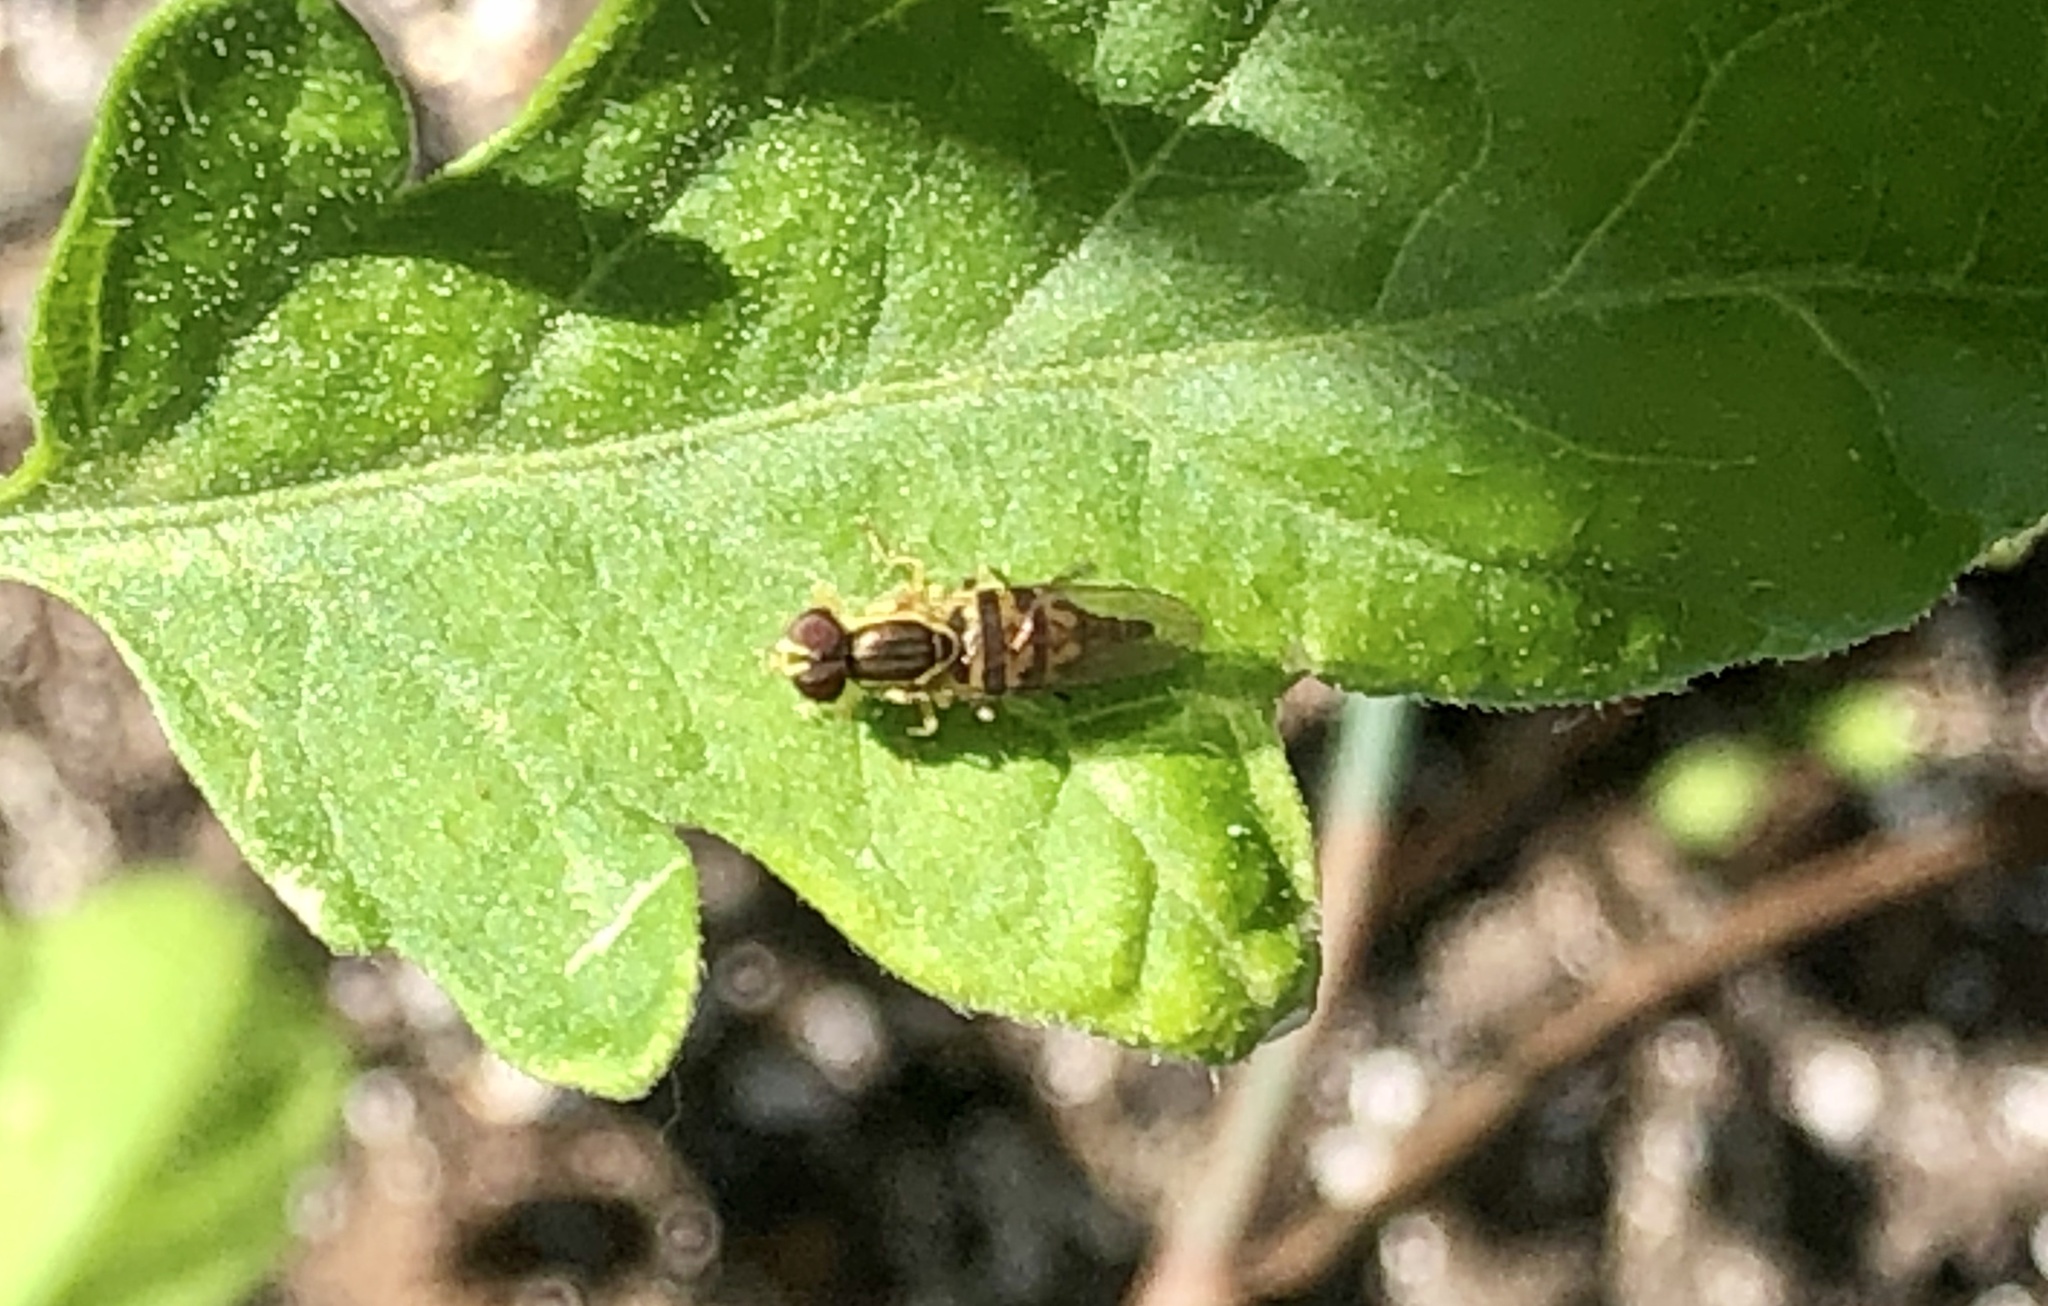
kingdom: Animalia
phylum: Arthropoda
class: Insecta
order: Diptera
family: Syrphidae
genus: Toxomerus
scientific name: Toxomerus geminatus
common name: Eastern calligrapher
